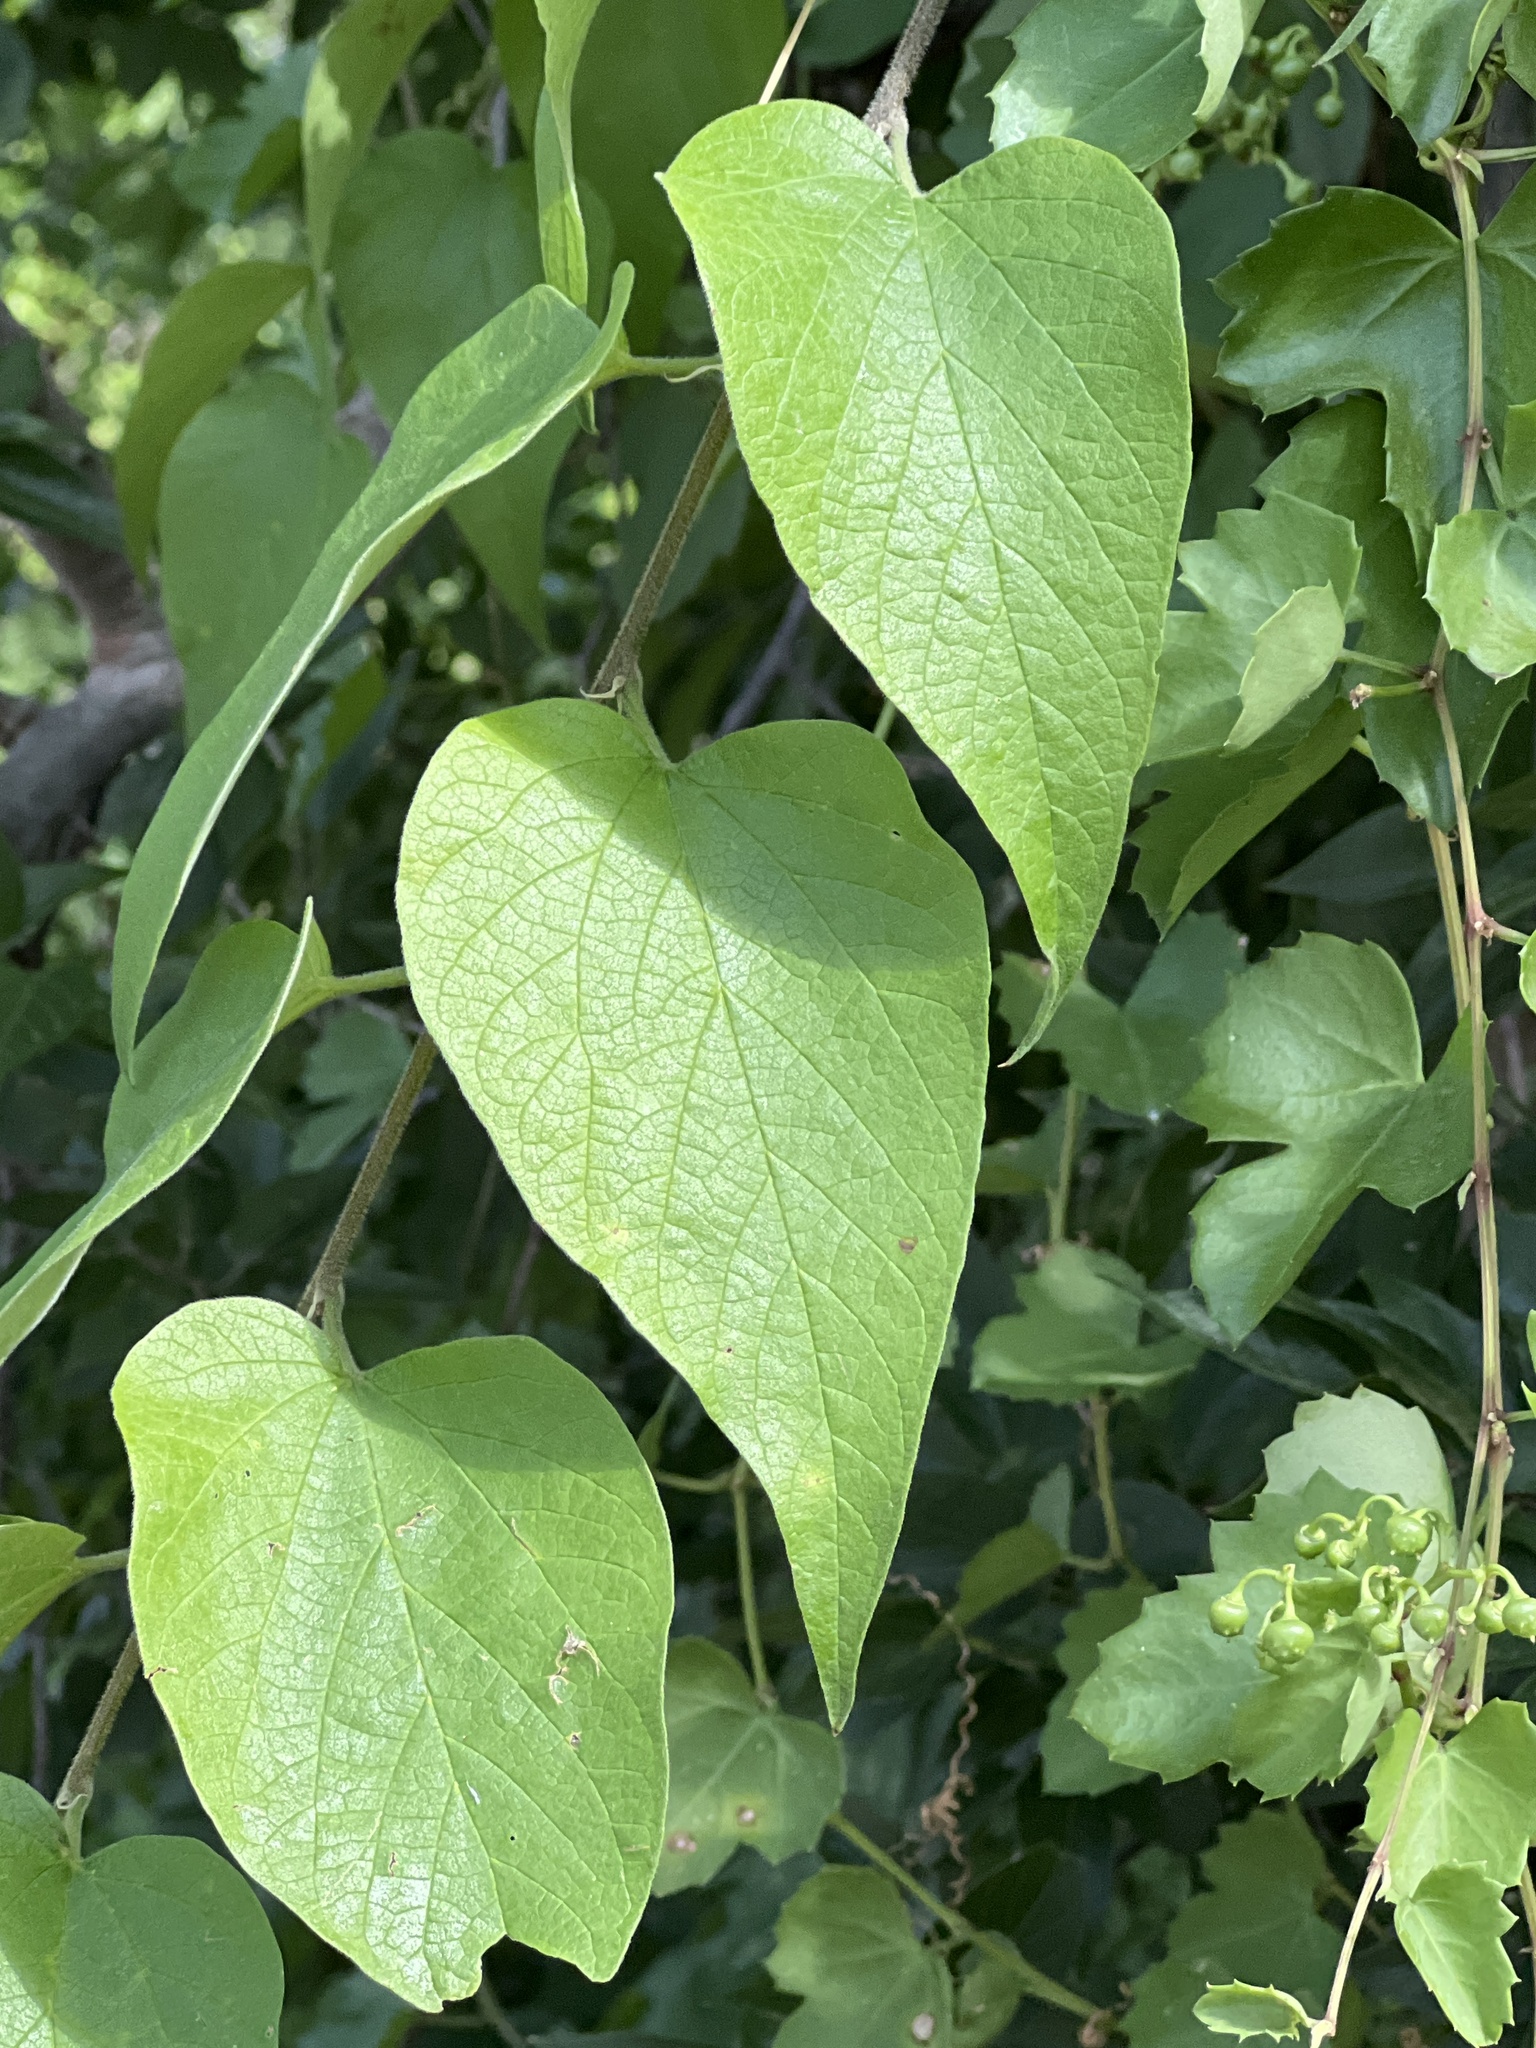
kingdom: Plantae
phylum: Tracheophyta
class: Magnoliopsida
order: Rosales
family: Cannabaceae
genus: Celtis
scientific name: Celtis reticulata
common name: Netleaf hackberry
